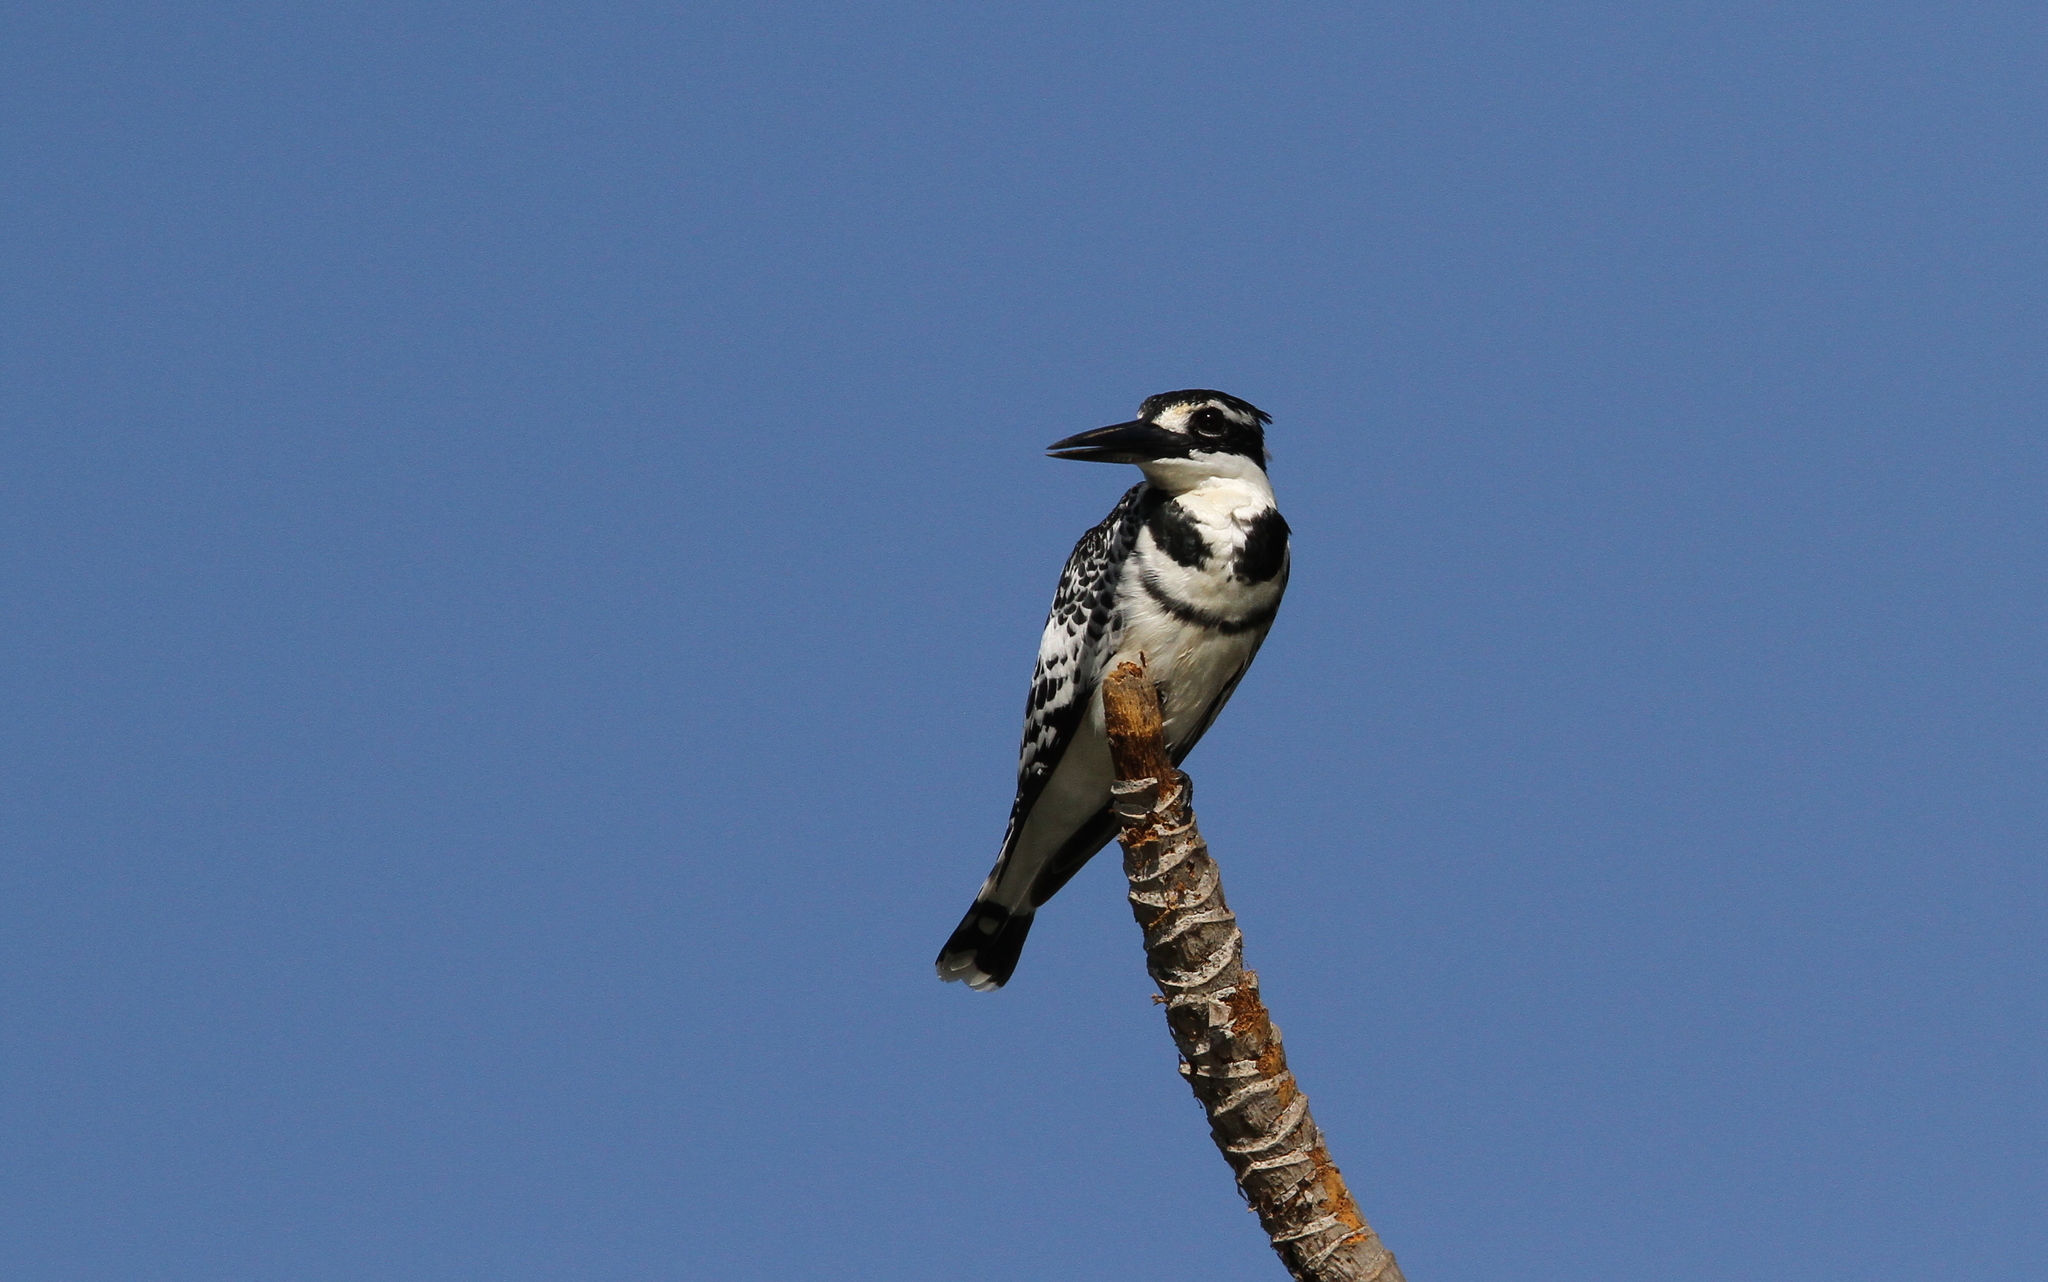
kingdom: Animalia
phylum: Chordata
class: Aves
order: Coraciiformes
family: Alcedinidae
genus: Ceryle
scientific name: Ceryle rudis
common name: Pied kingfisher
